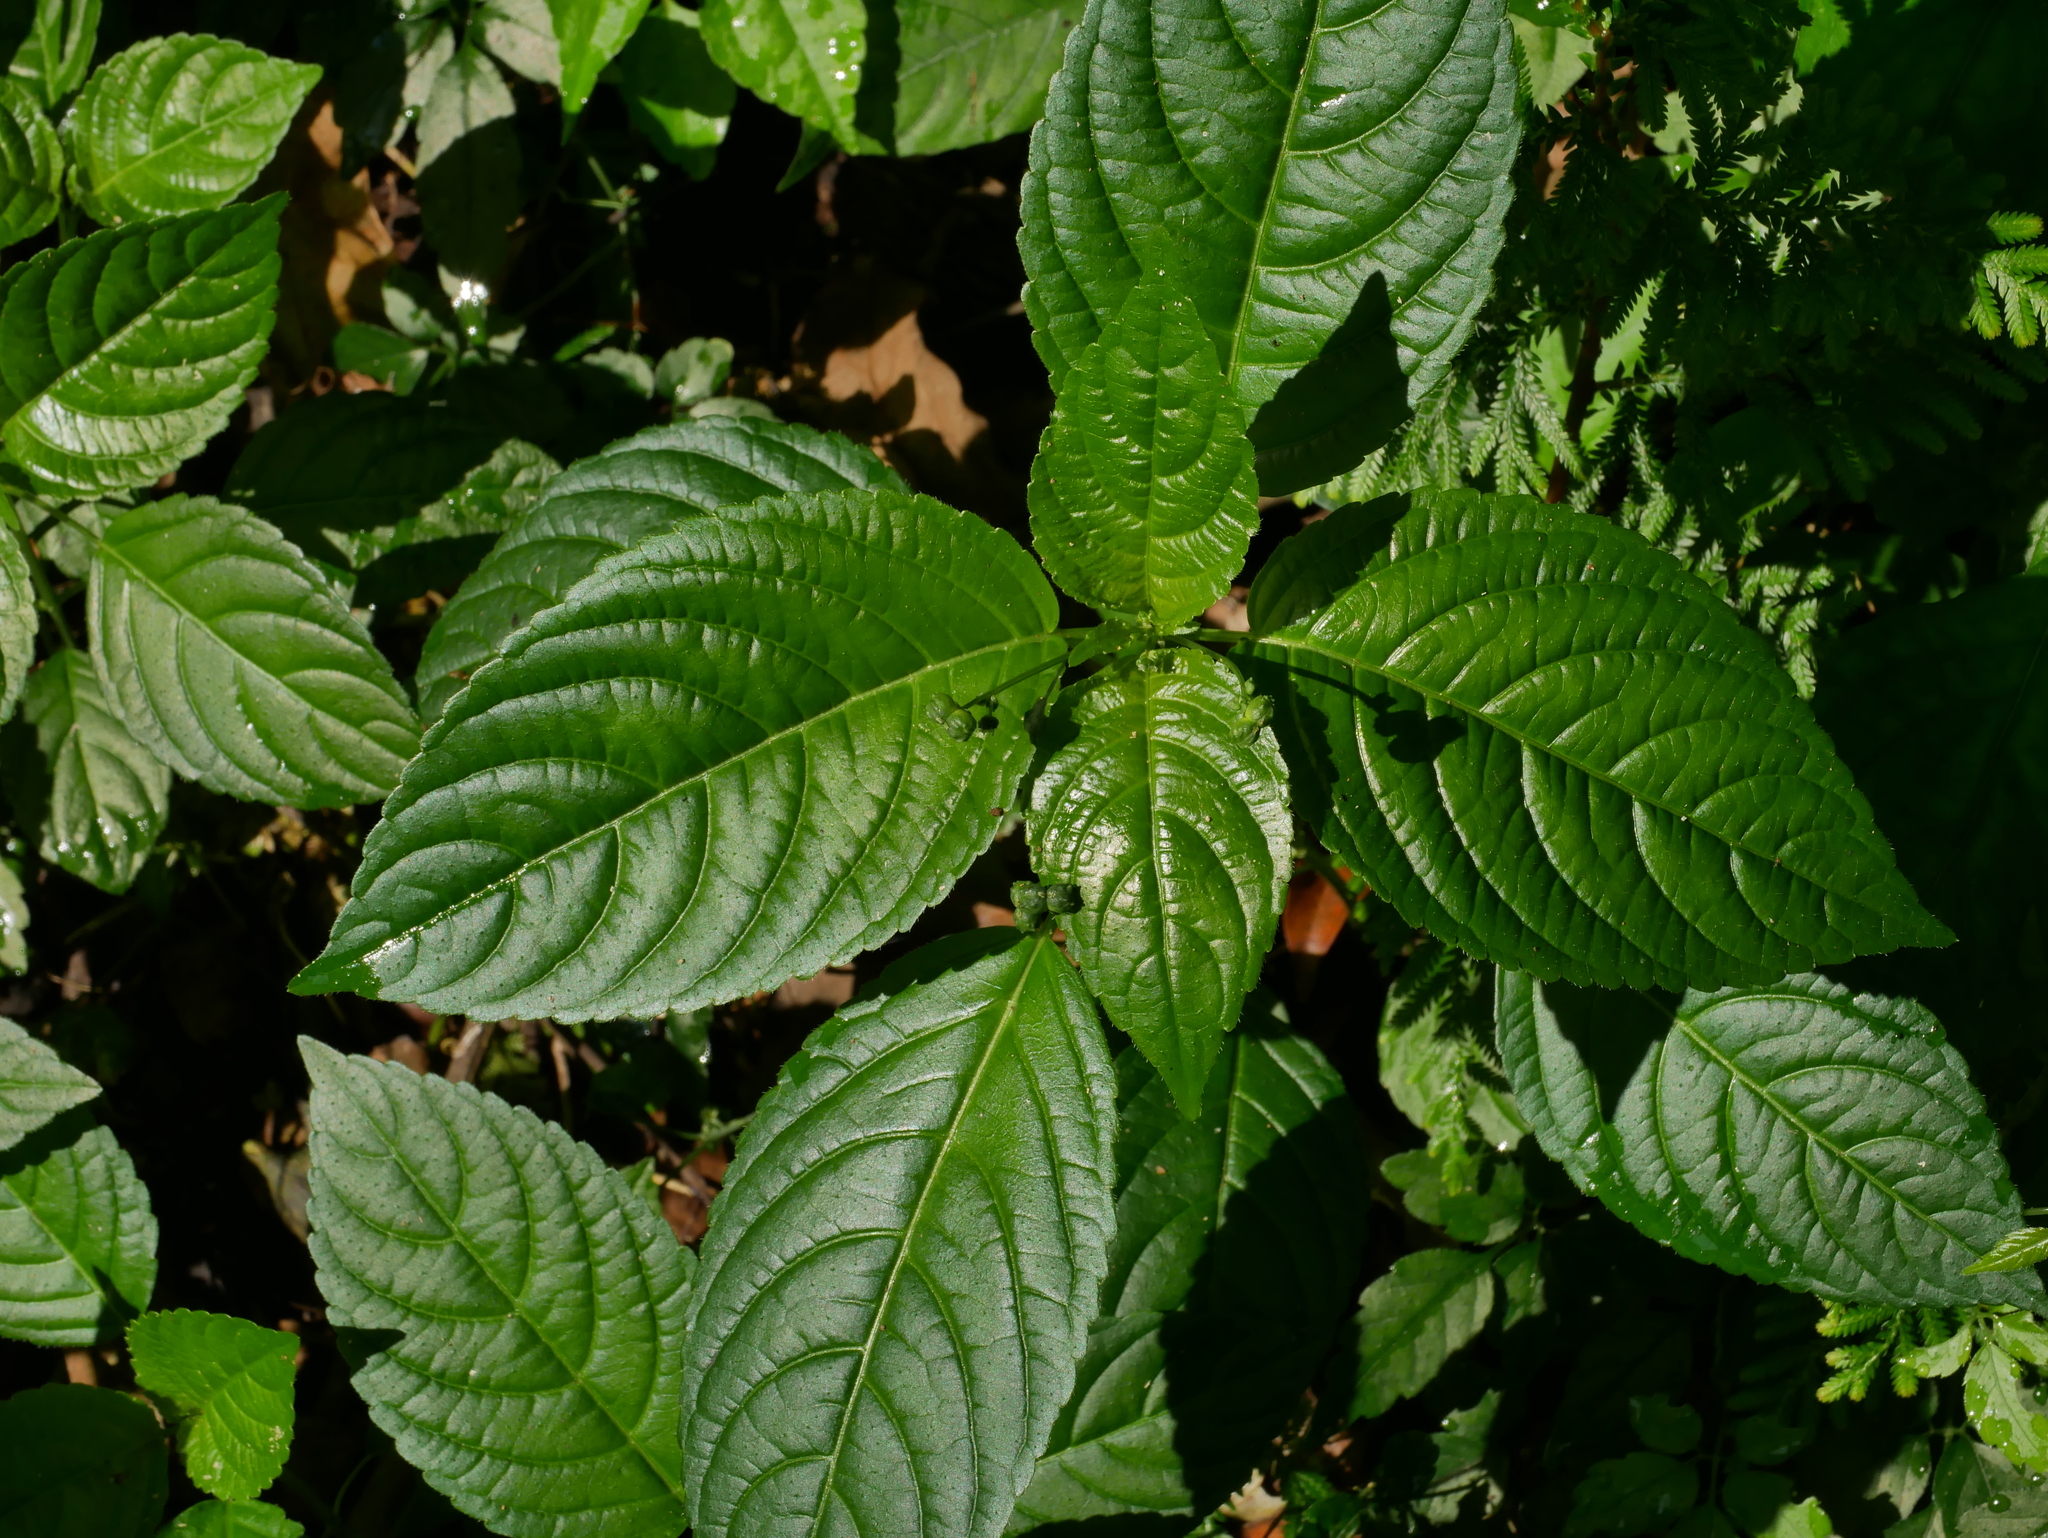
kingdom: Plantae
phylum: Tracheophyta
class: Magnoliopsida
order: Malpighiales
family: Euphorbiaceae
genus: Mercurialis
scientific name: Mercurialis leiocarpa
